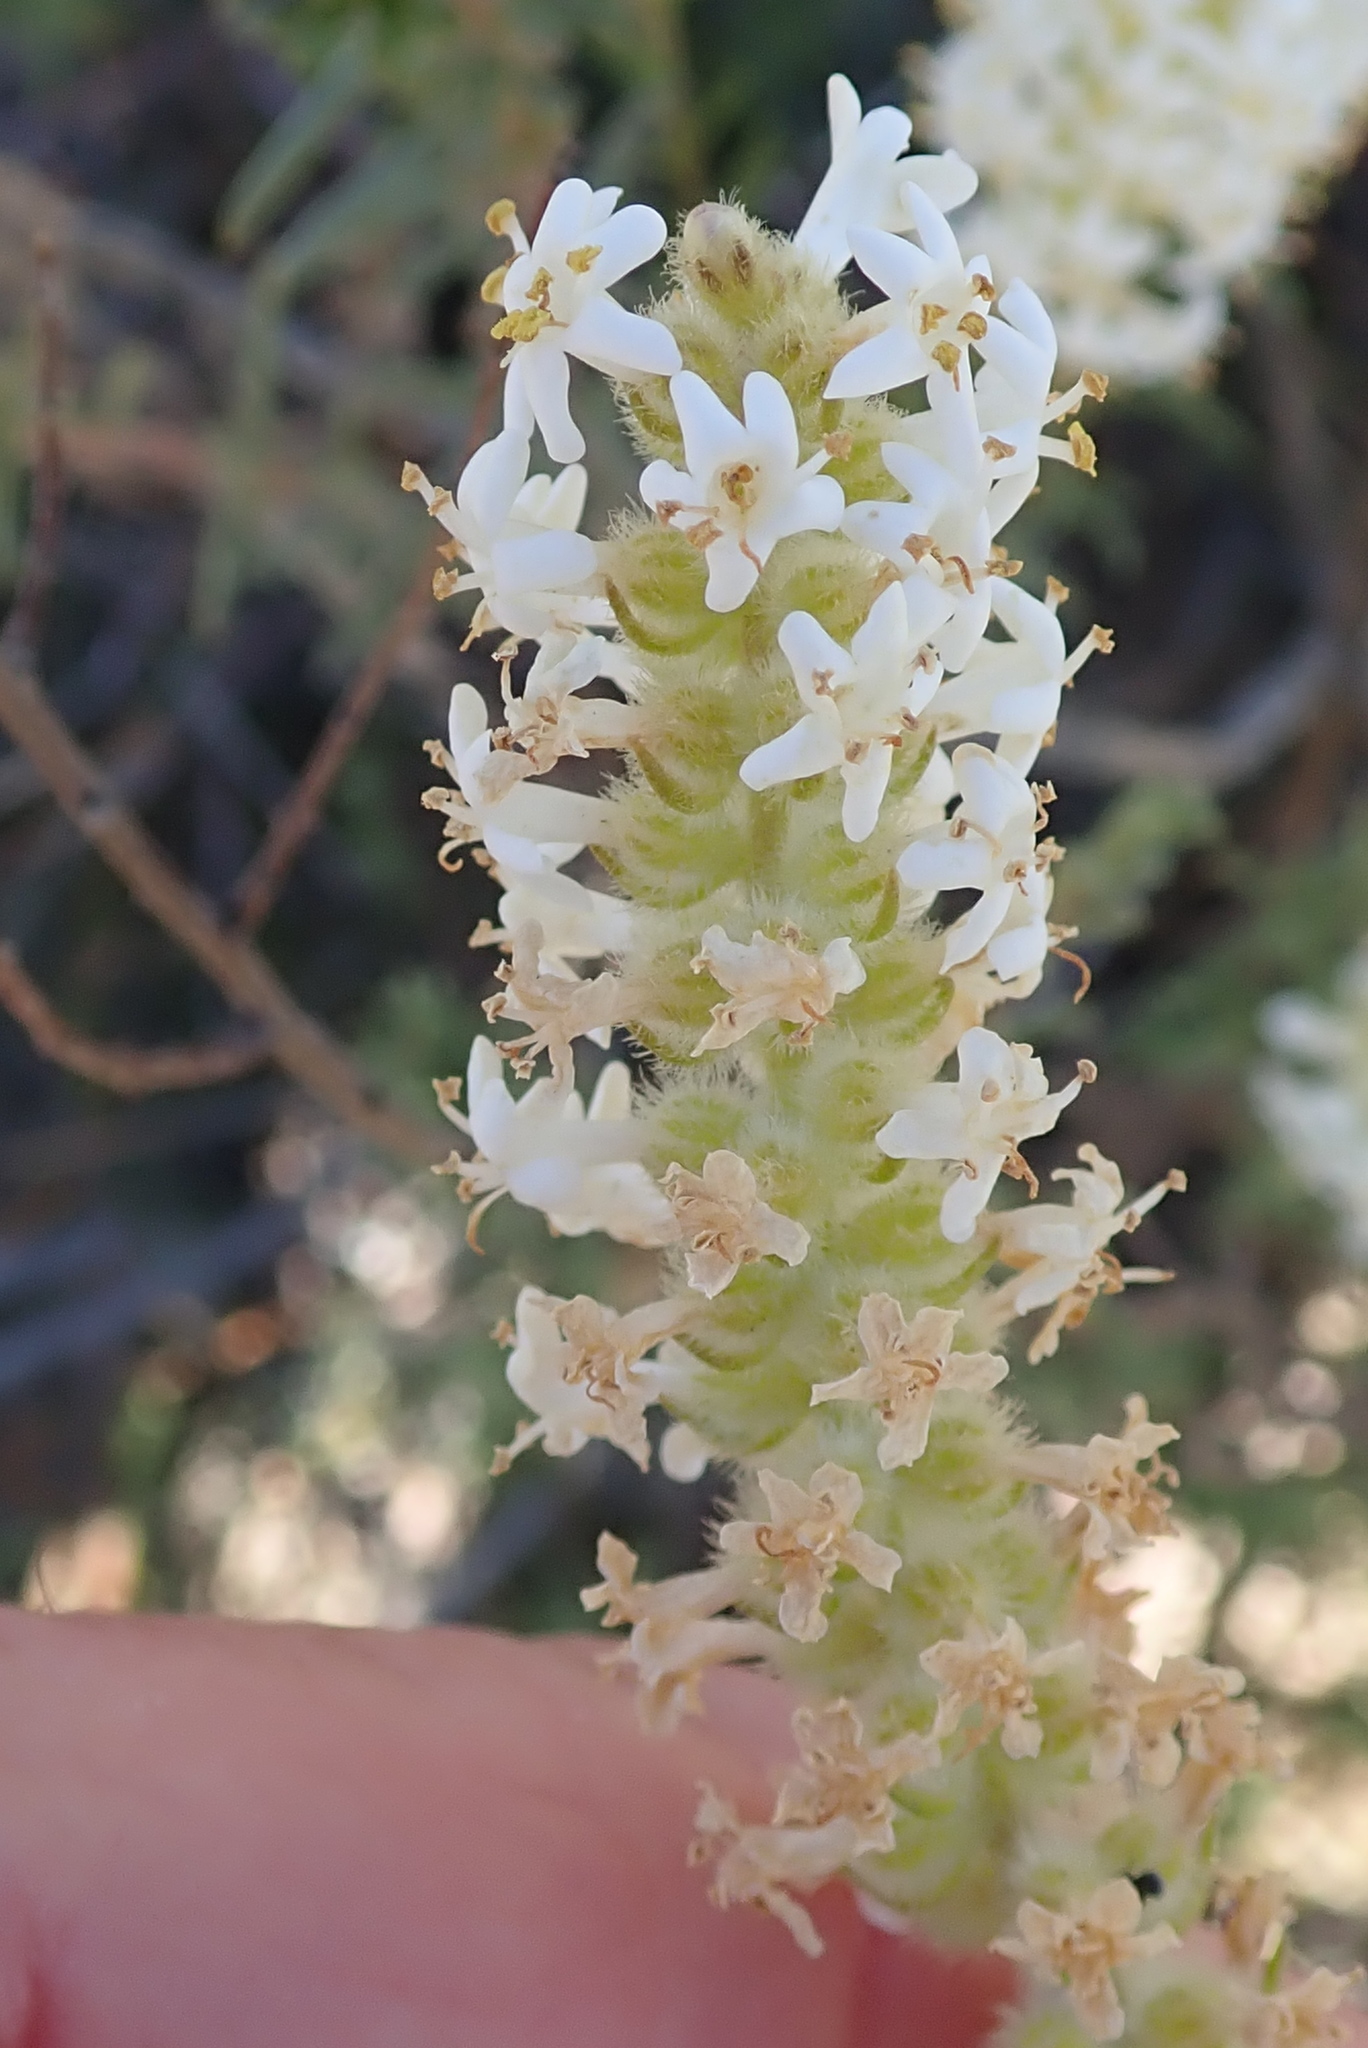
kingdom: Plantae
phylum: Tracheophyta
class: Magnoliopsida
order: Lamiales
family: Scrophulariaceae
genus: Selago
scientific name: Selago glutinosa
